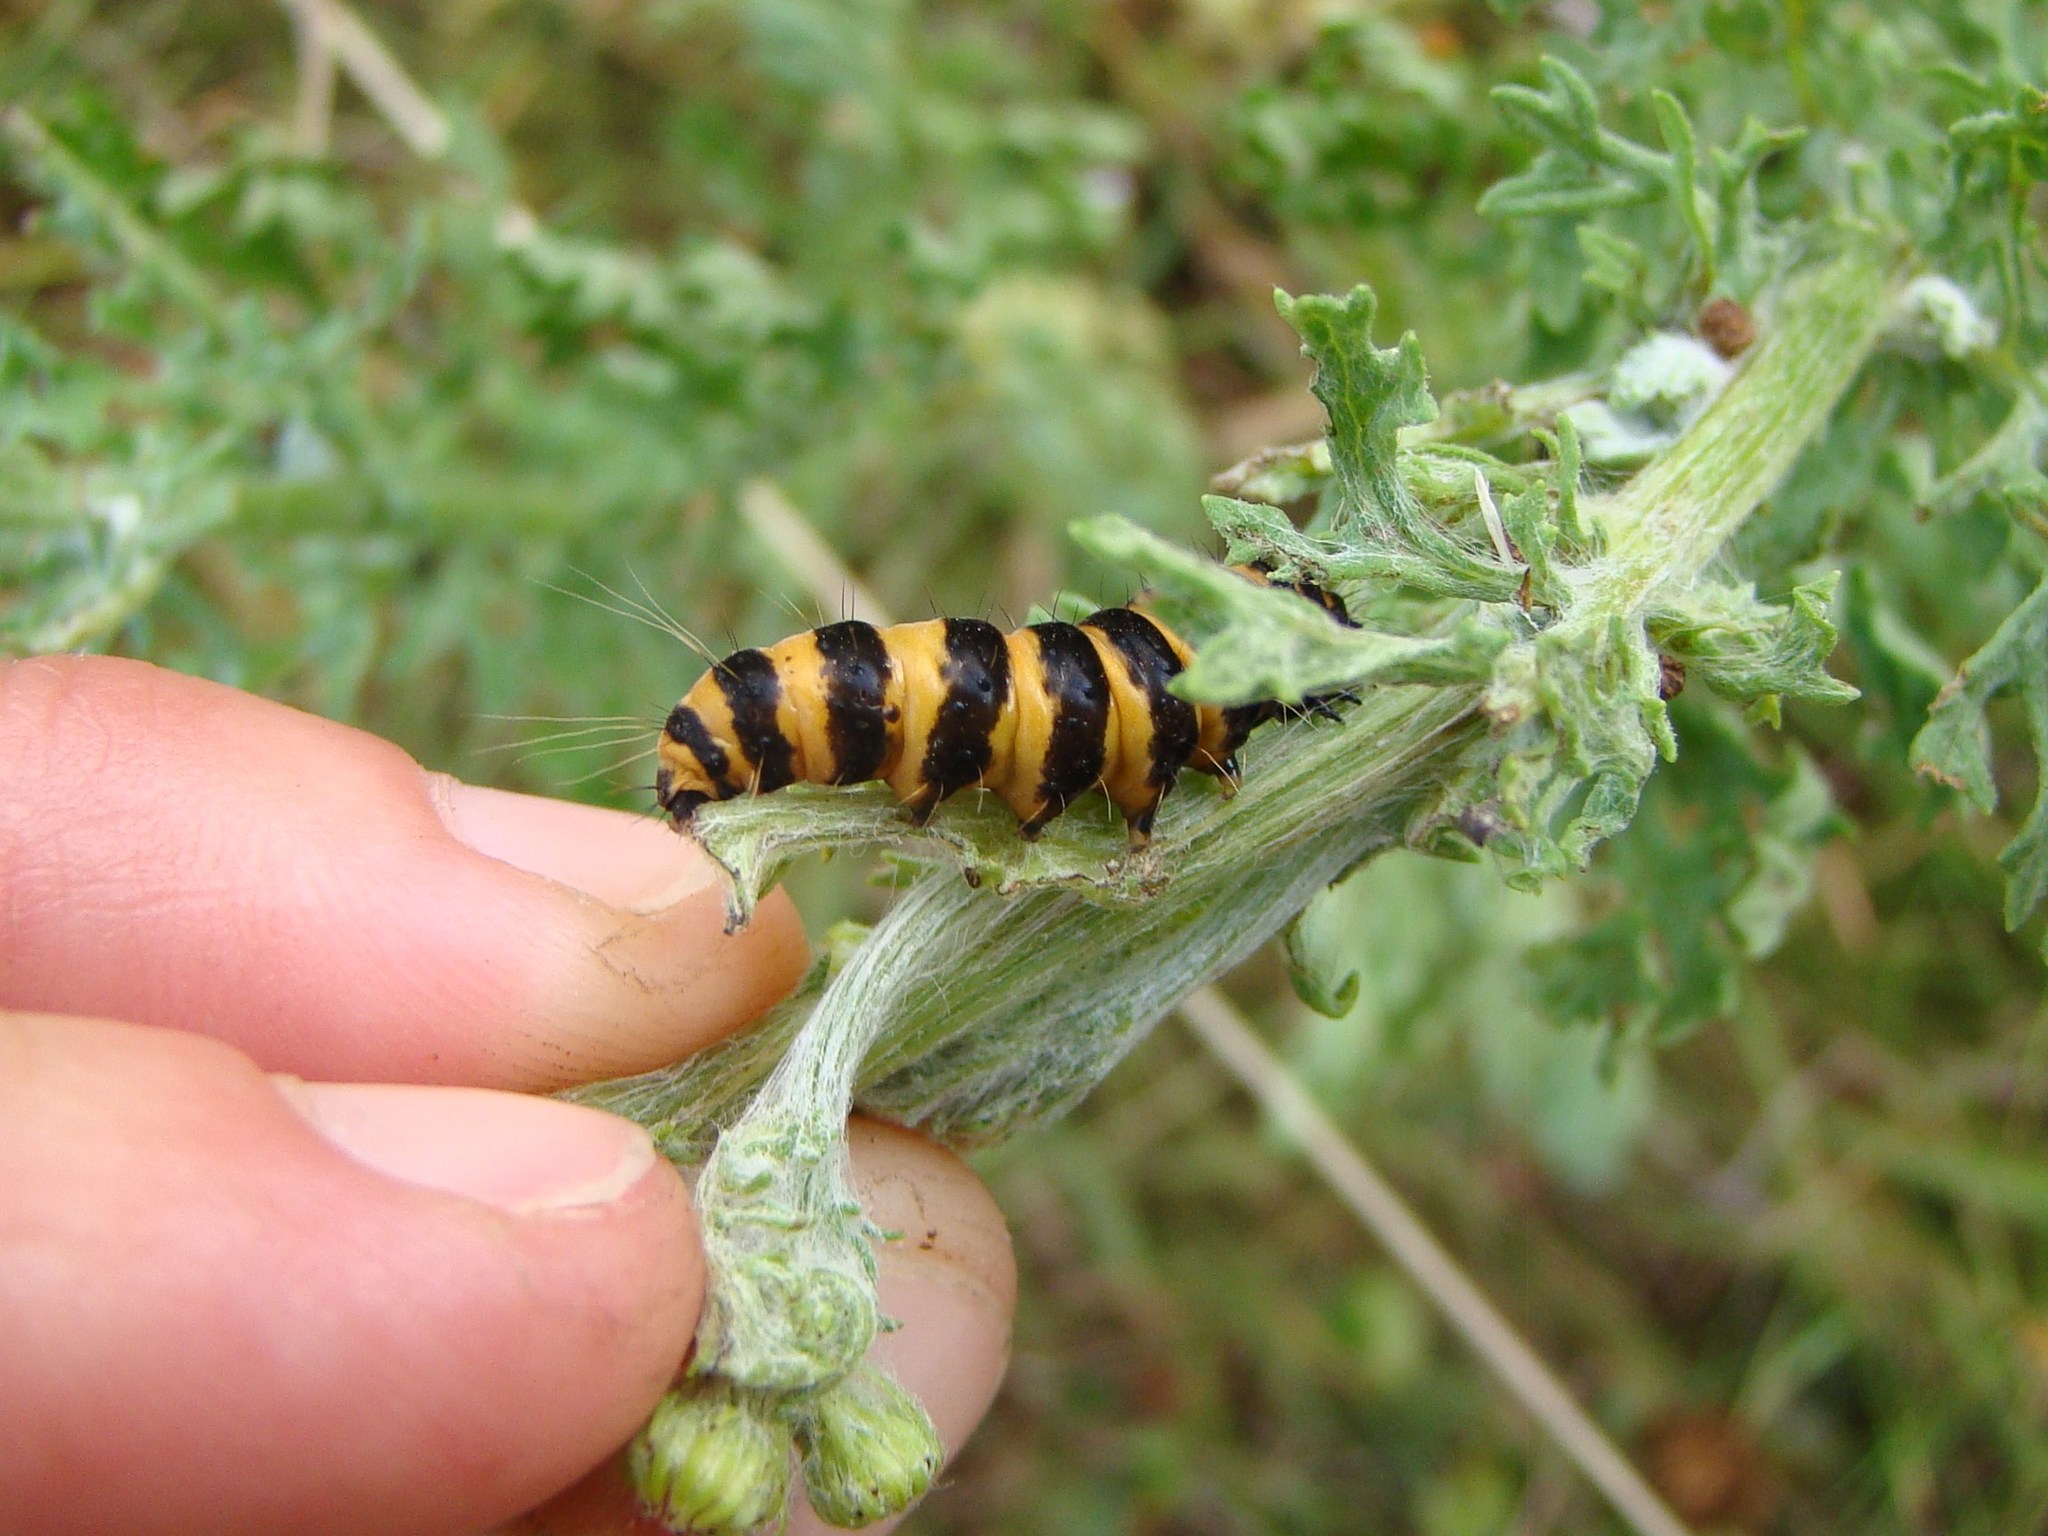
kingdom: Animalia
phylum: Arthropoda
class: Insecta
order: Lepidoptera
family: Erebidae
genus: Tyria
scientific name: Tyria jacobaeae
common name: Cinnabar
